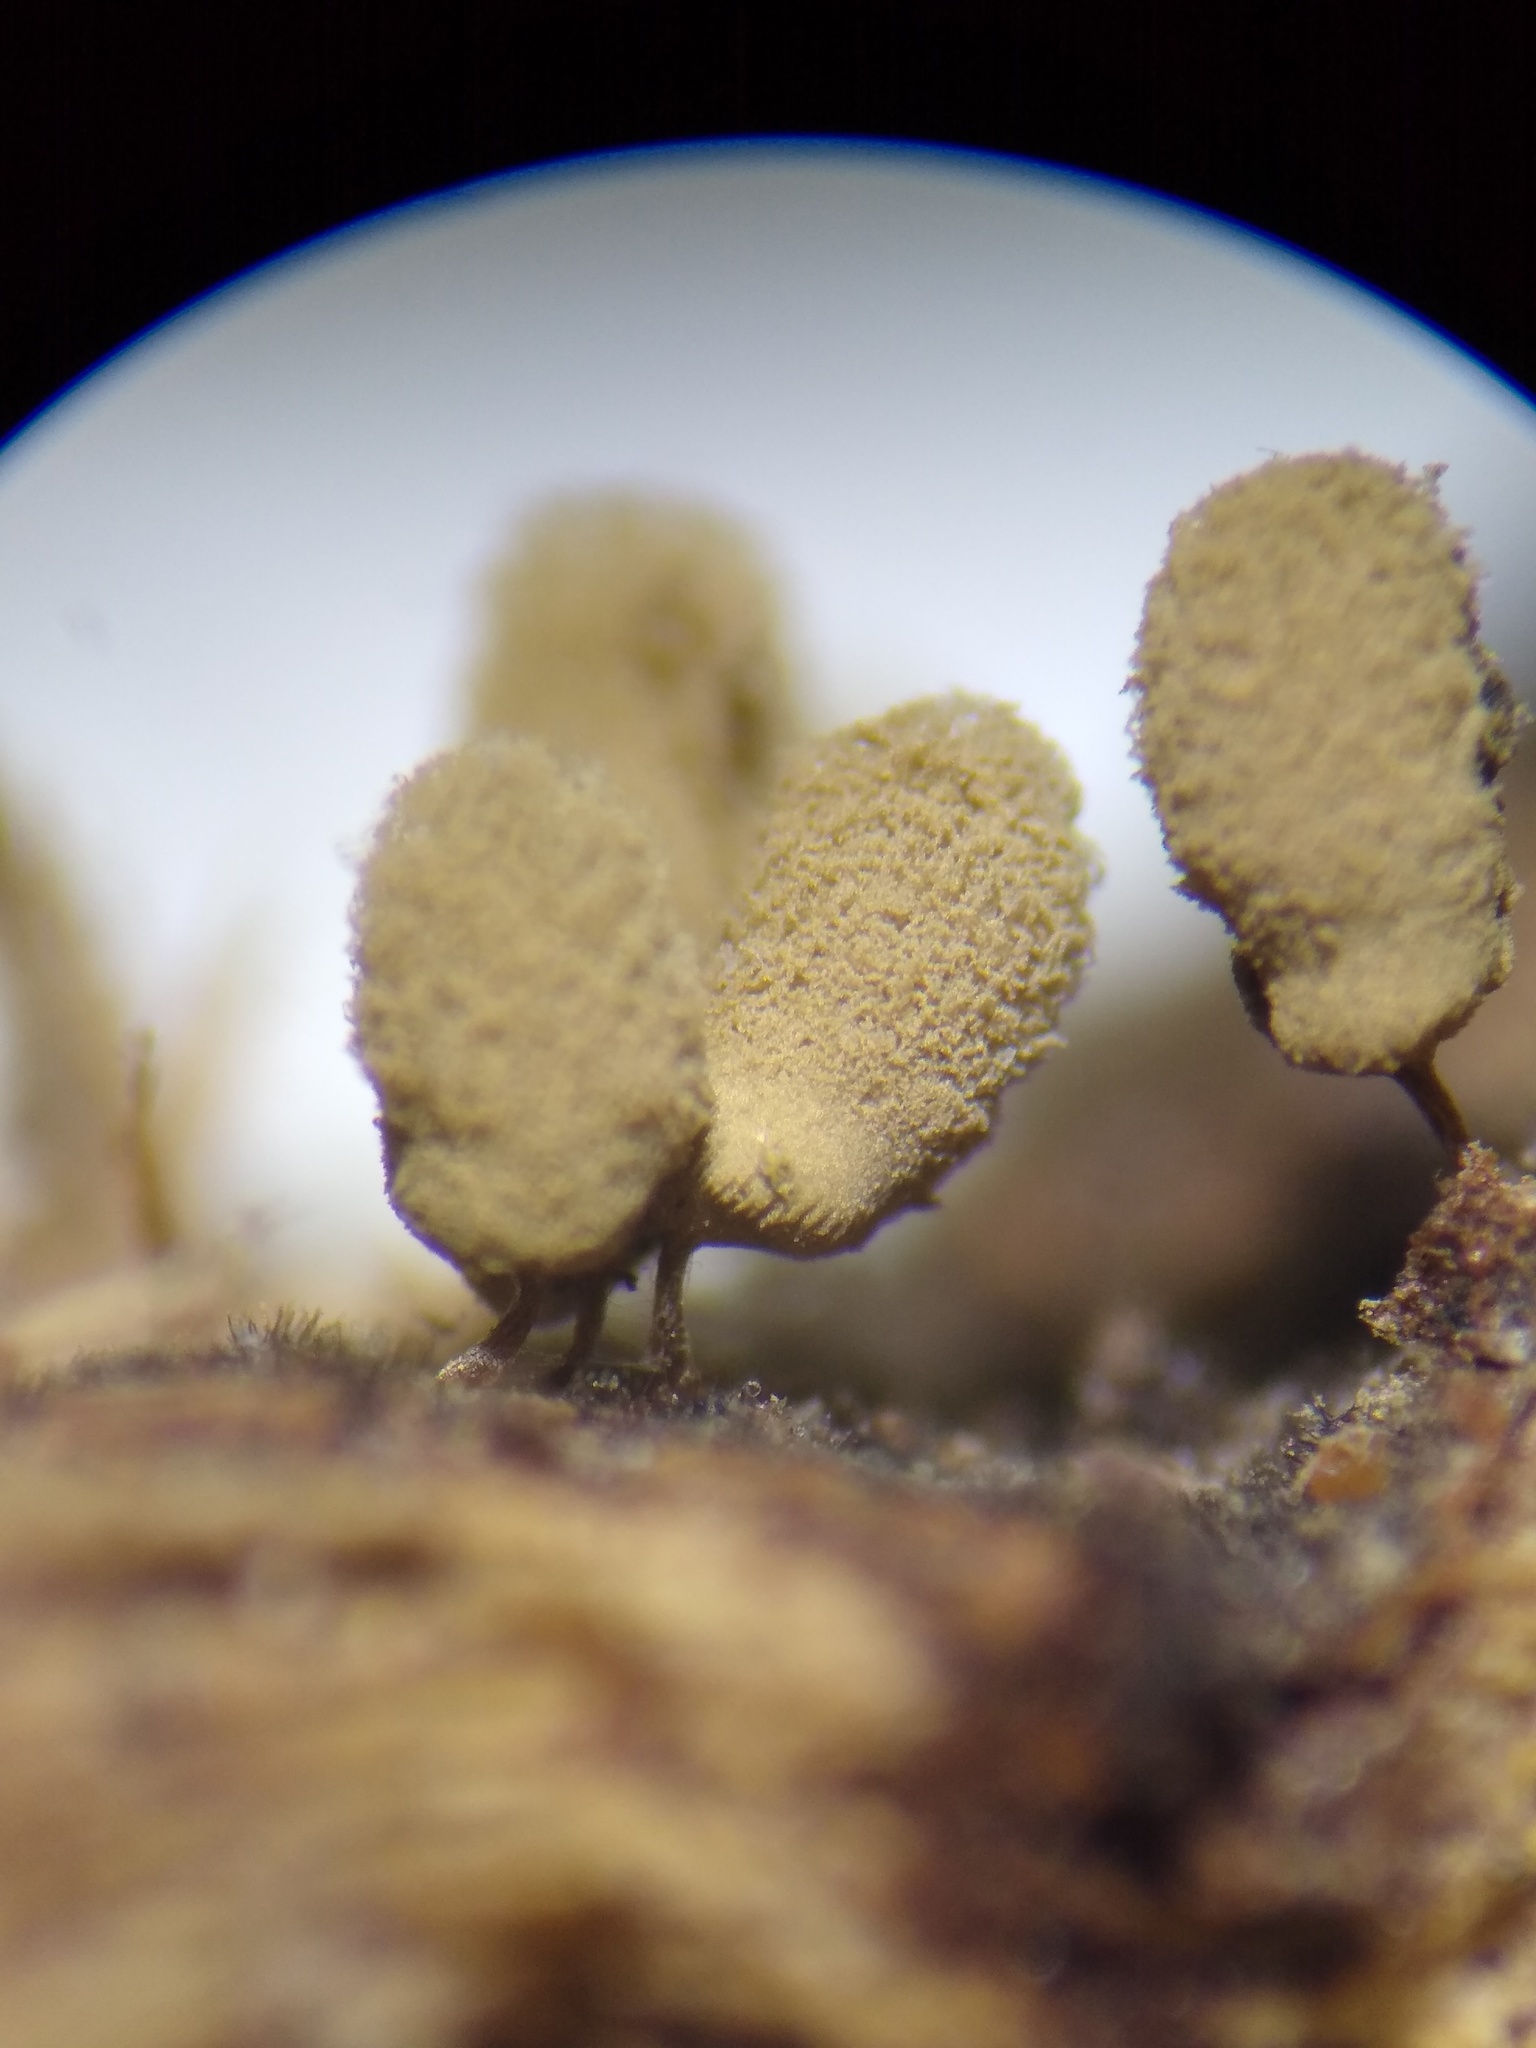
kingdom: Protozoa
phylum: Mycetozoa
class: Myxomycetes
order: Trichiales
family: Arcyriaceae
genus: Arcyria
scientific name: Arcyria cinerea
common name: White carnival candy slime mold
